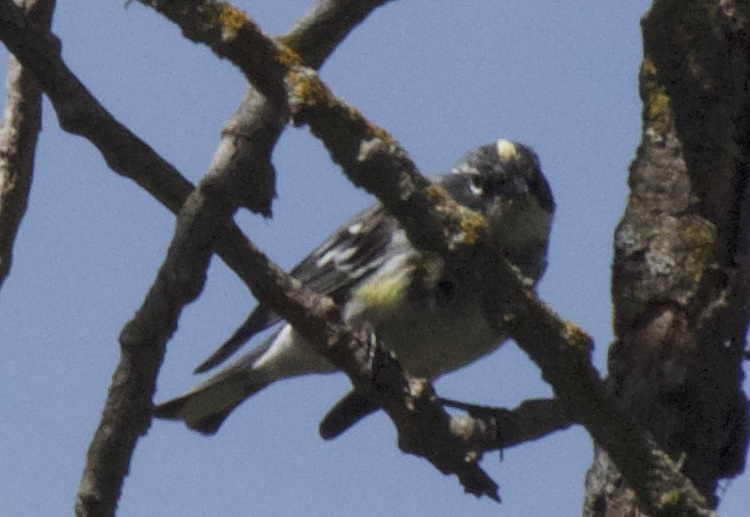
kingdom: Animalia
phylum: Chordata
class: Aves
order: Passeriformes
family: Parulidae
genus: Setophaga
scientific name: Setophaga coronata
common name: Myrtle warbler
